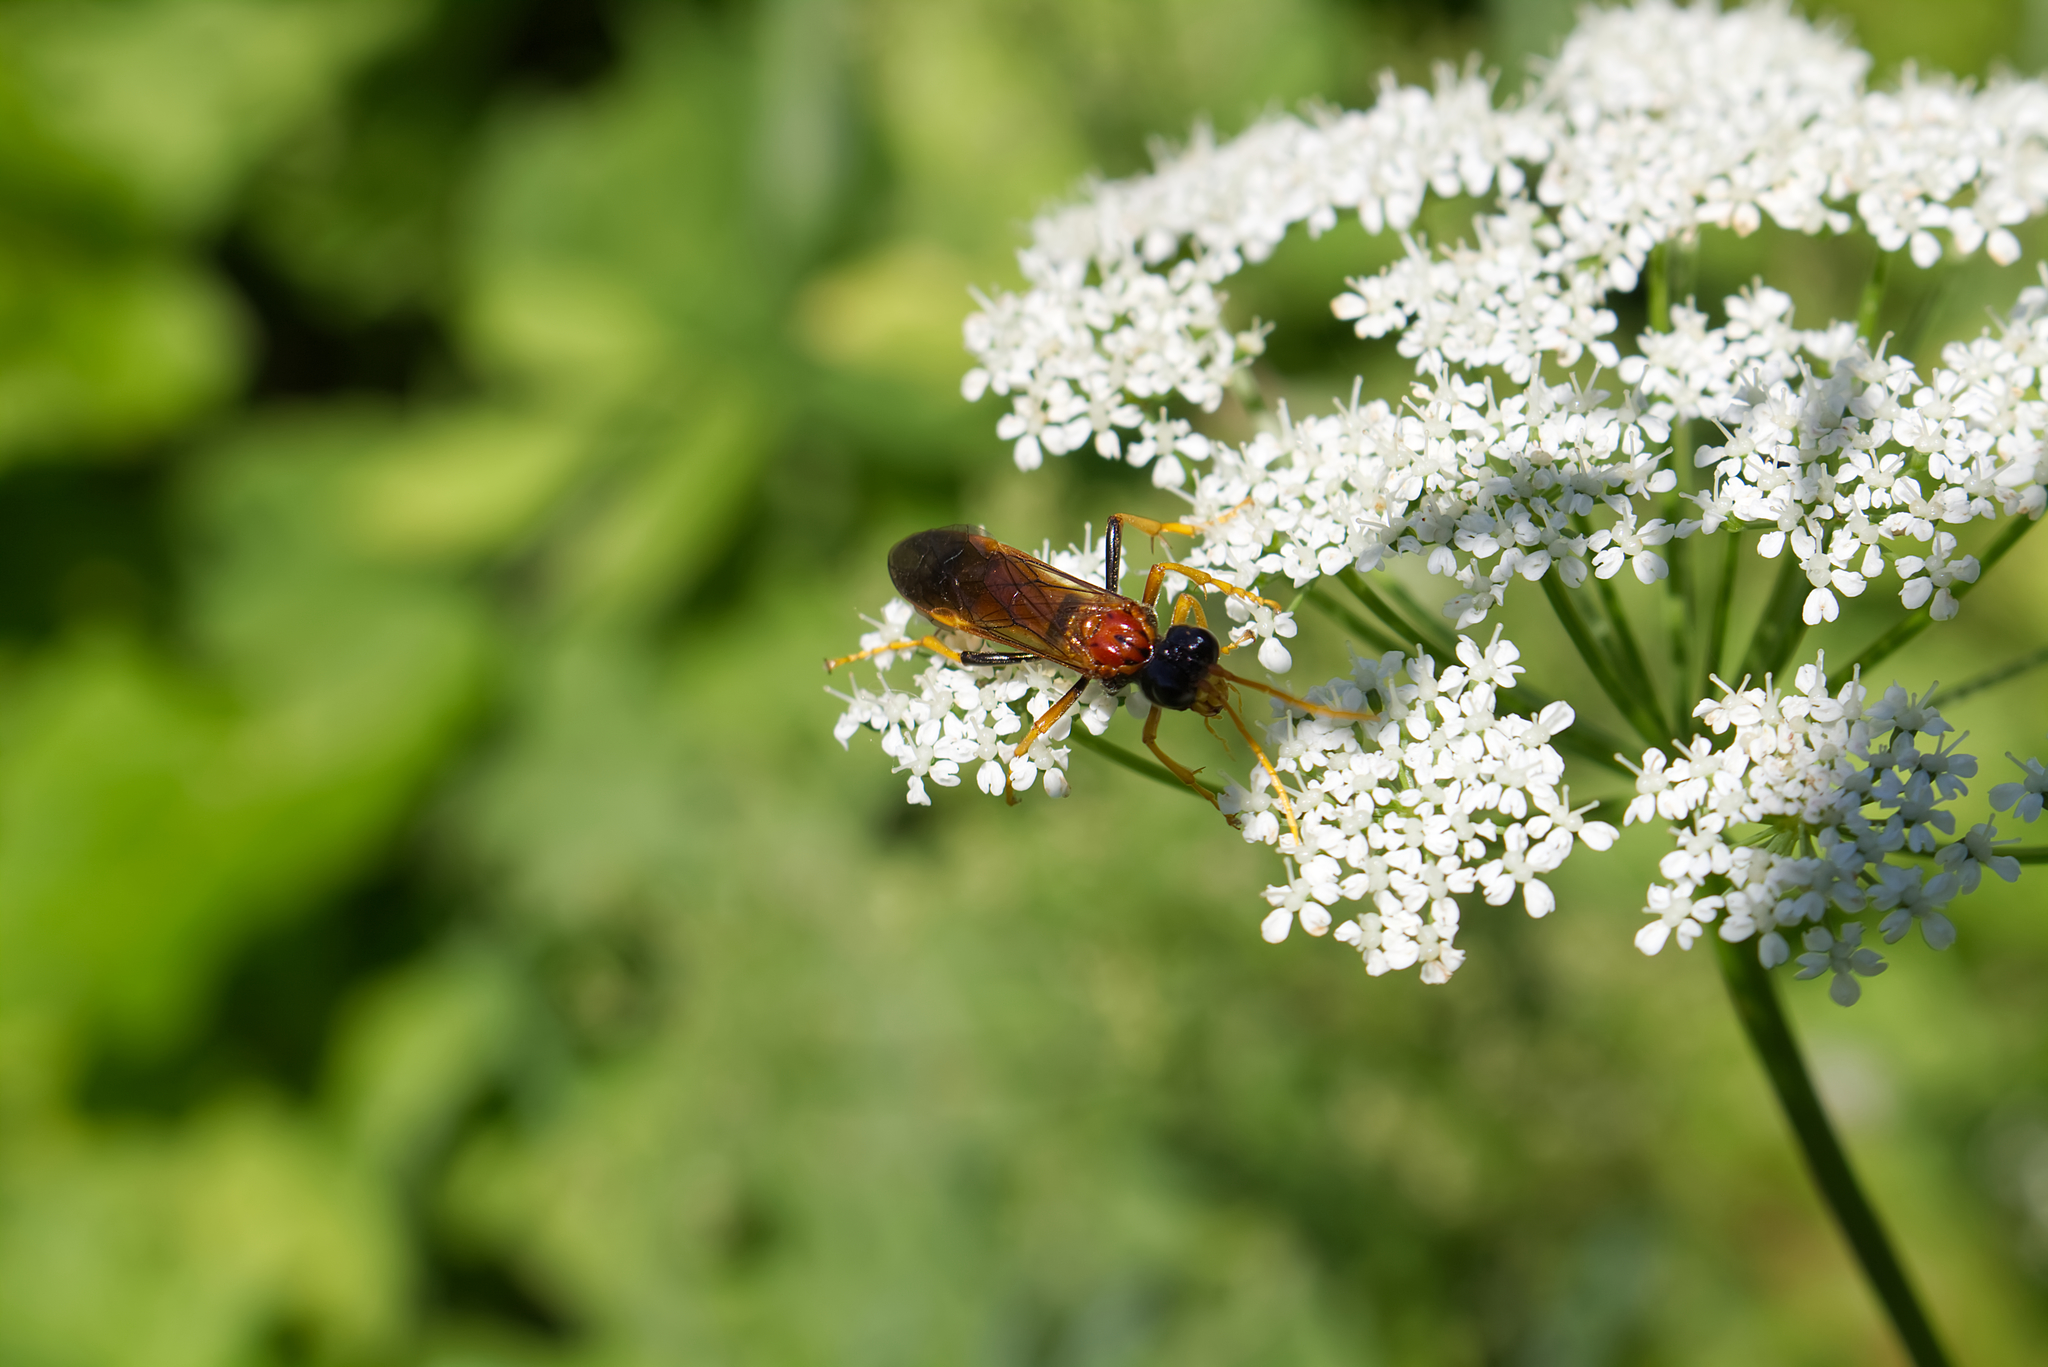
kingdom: Animalia
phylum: Arthropoda
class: Insecta
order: Hymenoptera
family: Tenthredinidae
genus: Tenthredo
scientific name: Tenthredo campestris
